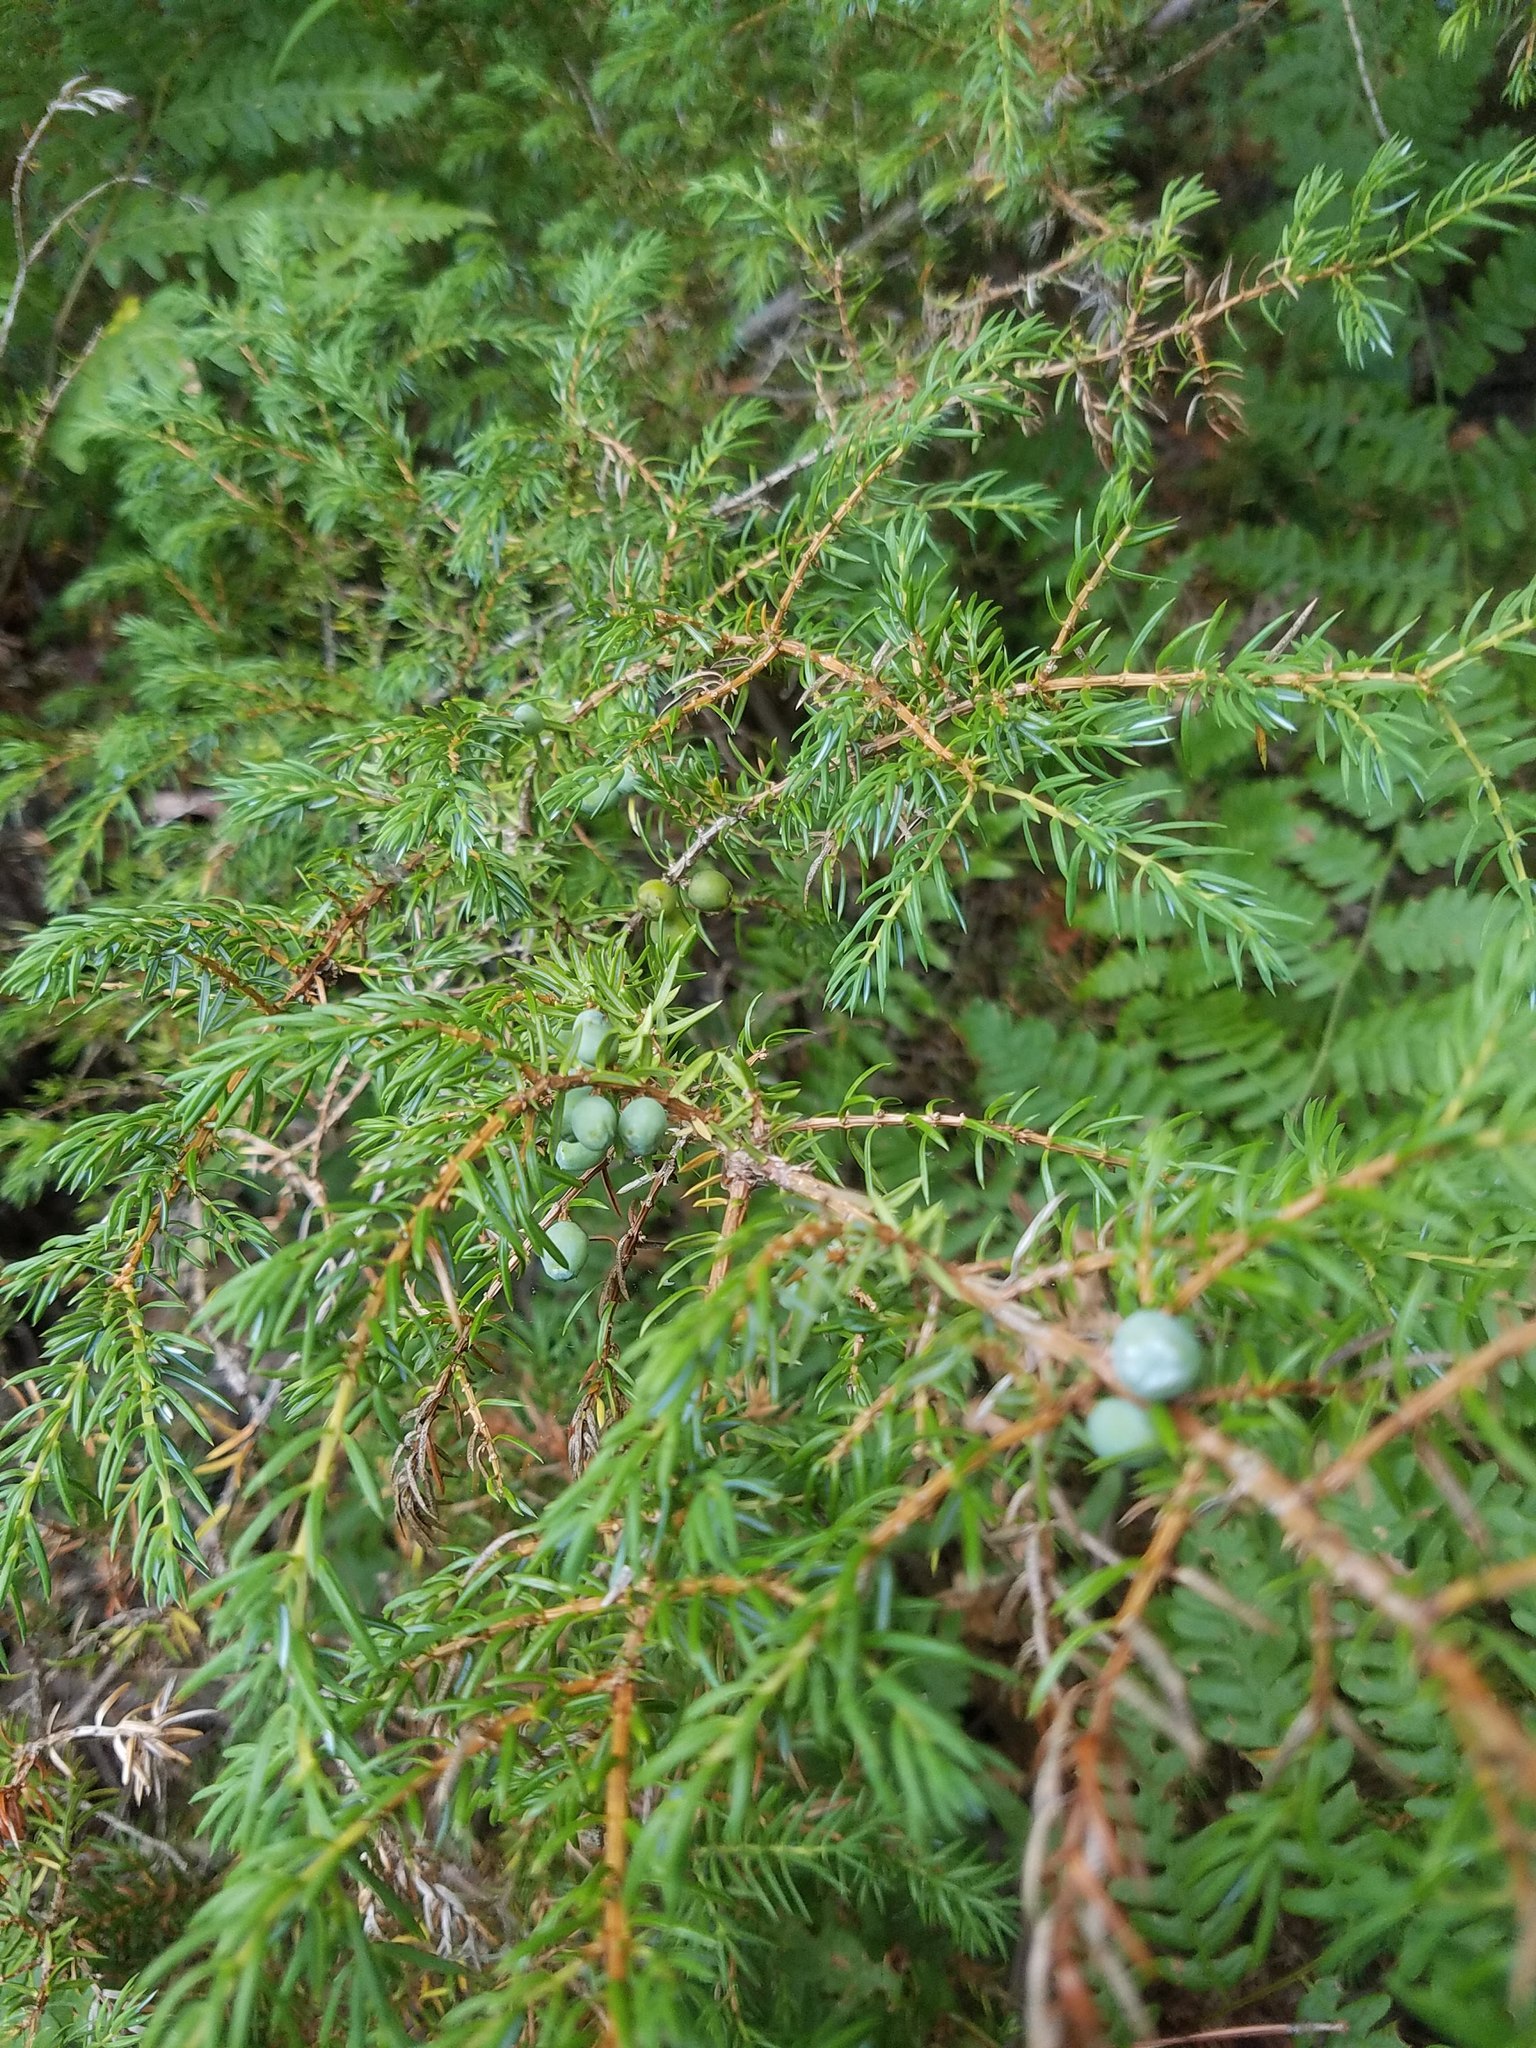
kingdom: Plantae
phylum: Tracheophyta
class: Pinopsida
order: Pinales
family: Cupressaceae
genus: Juniperus
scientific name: Juniperus communis
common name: Common juniper
